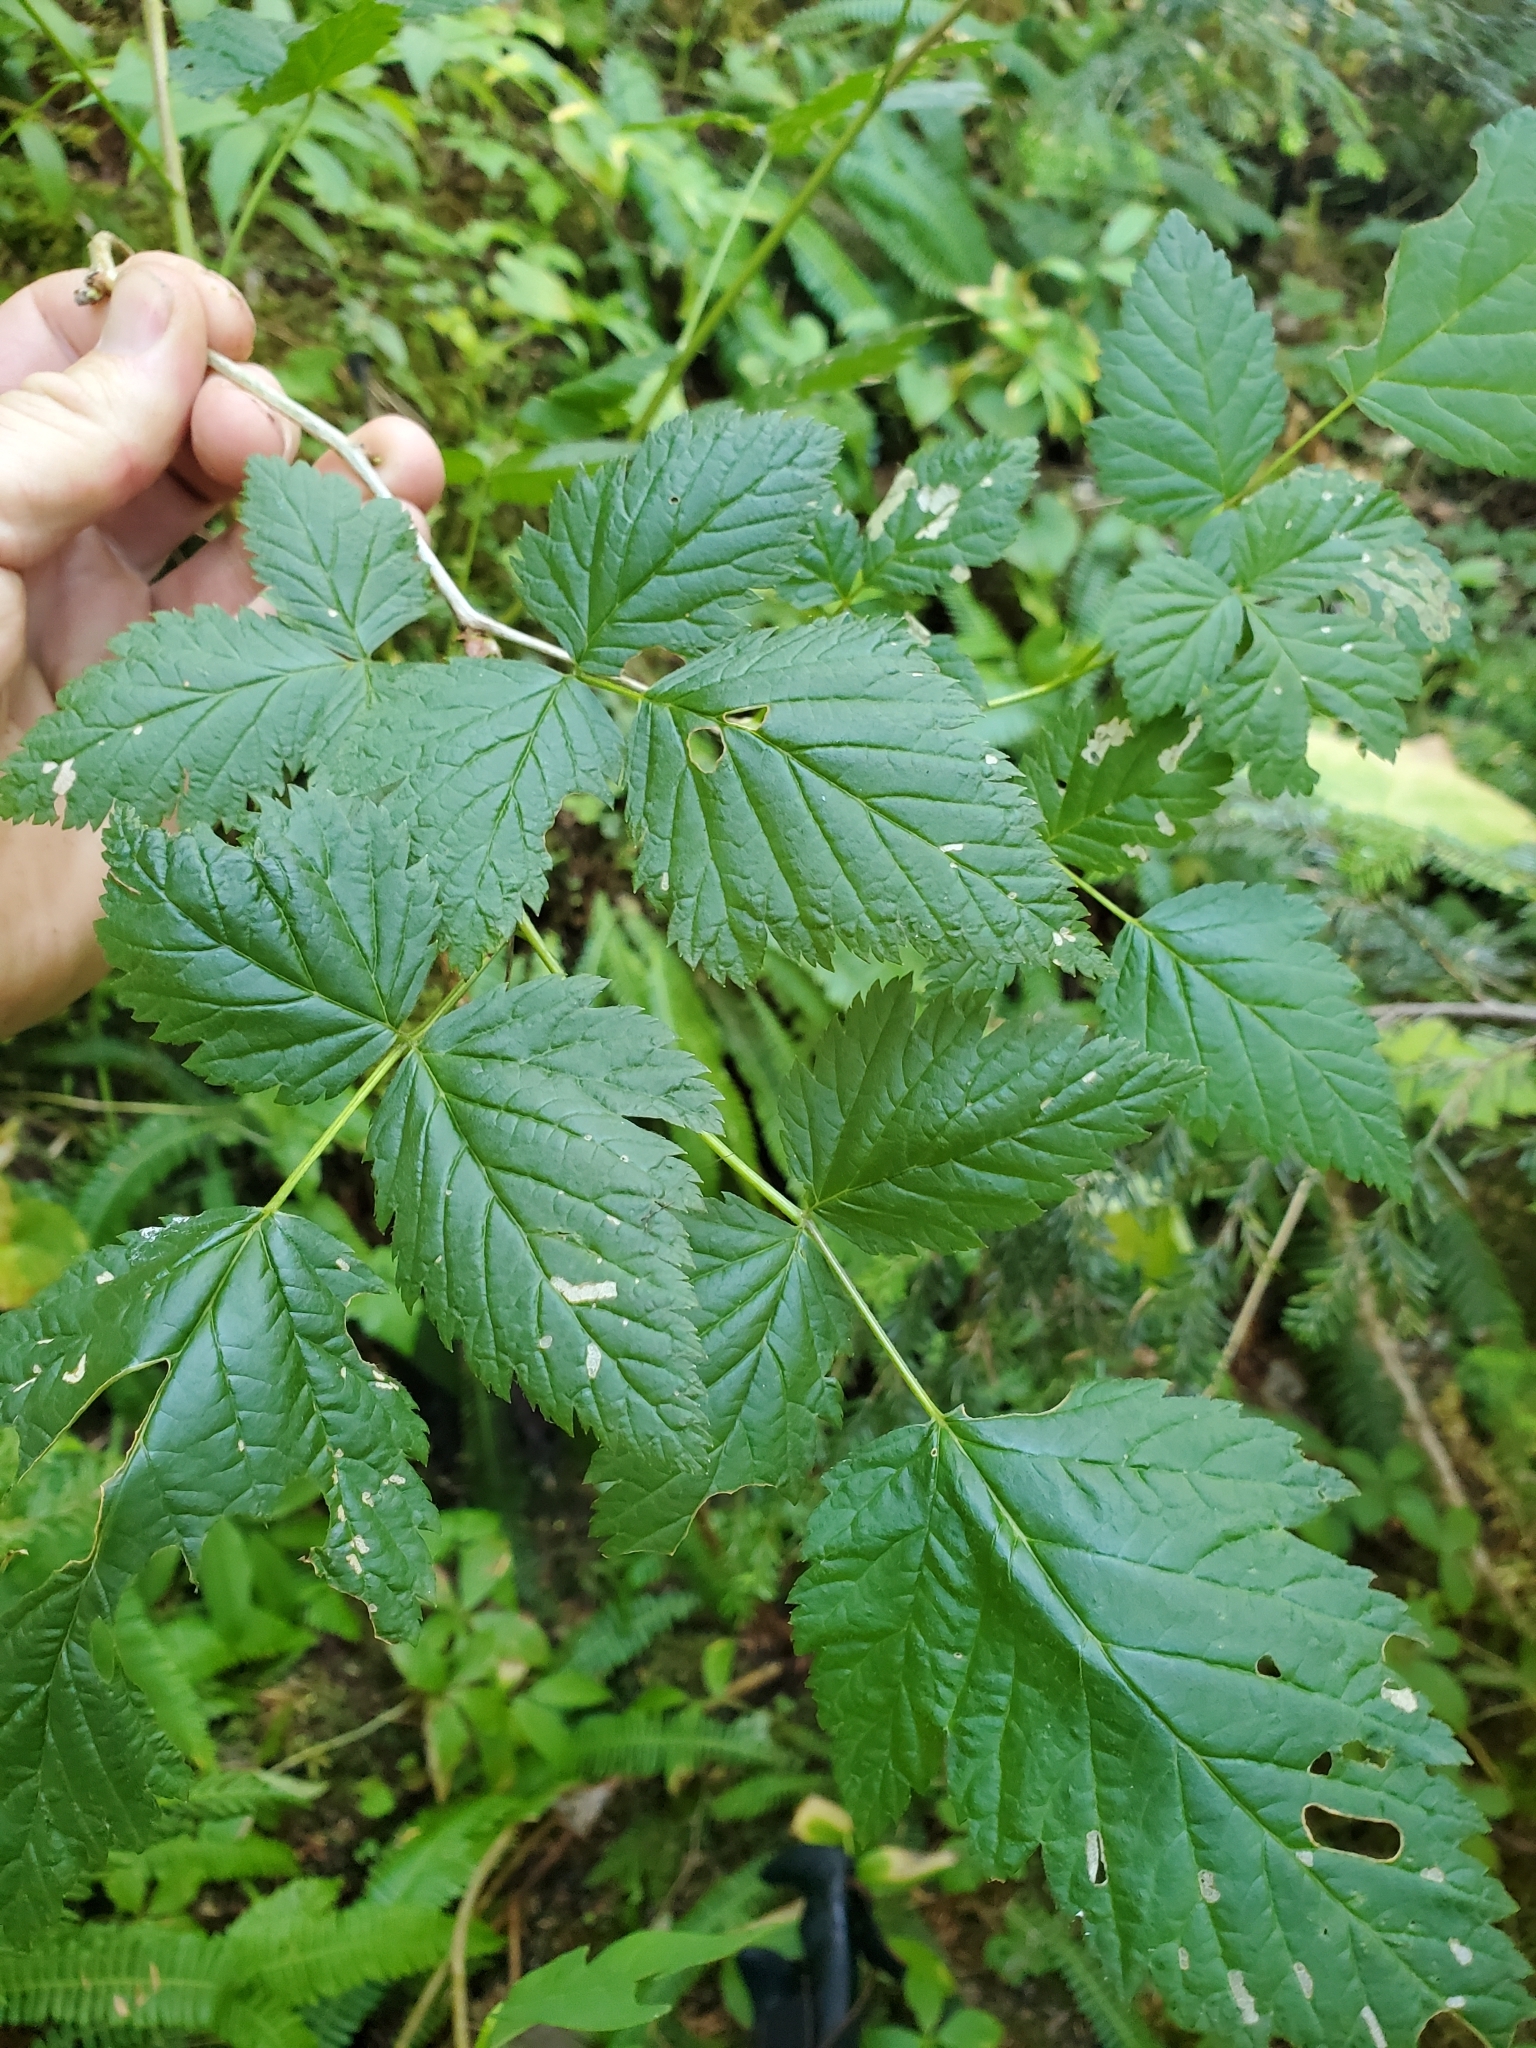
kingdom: Plantae
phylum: Tracheophyta
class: Magnoliopsida
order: Rosales
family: Rosaceae
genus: Rubus
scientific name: Rubus spectabilis
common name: Salmonberry
